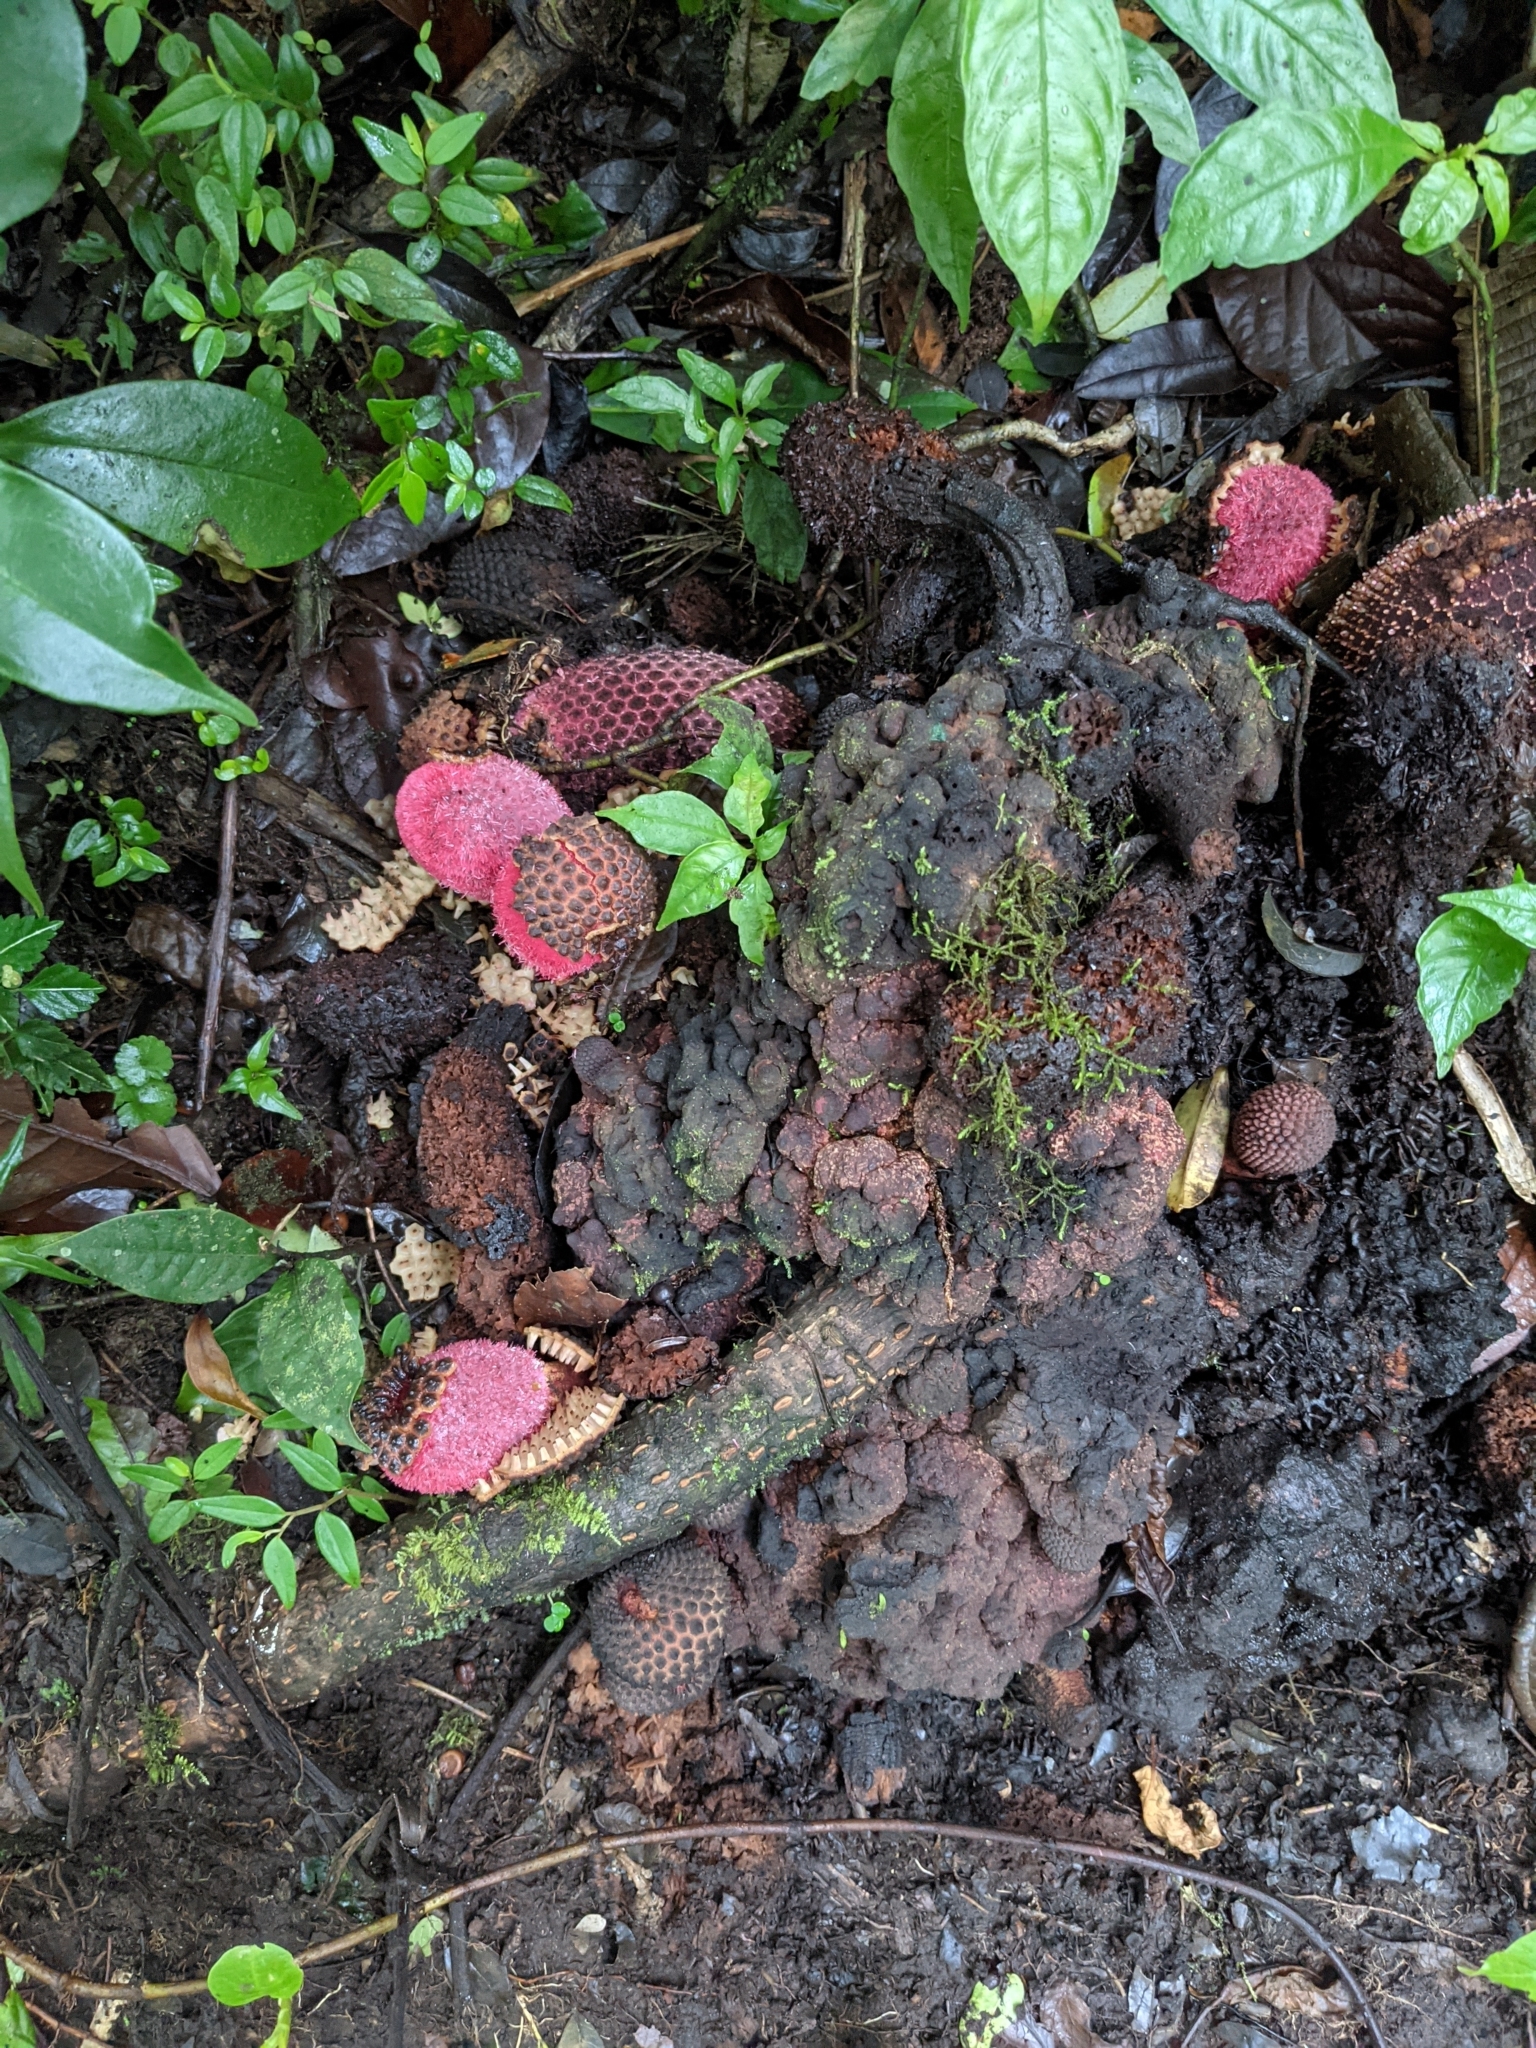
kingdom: Plantae
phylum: Tracheophyta
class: Magnoliopsida
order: Santalales
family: Balanophoraceae
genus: Corynaea
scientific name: Corynaea crassa
